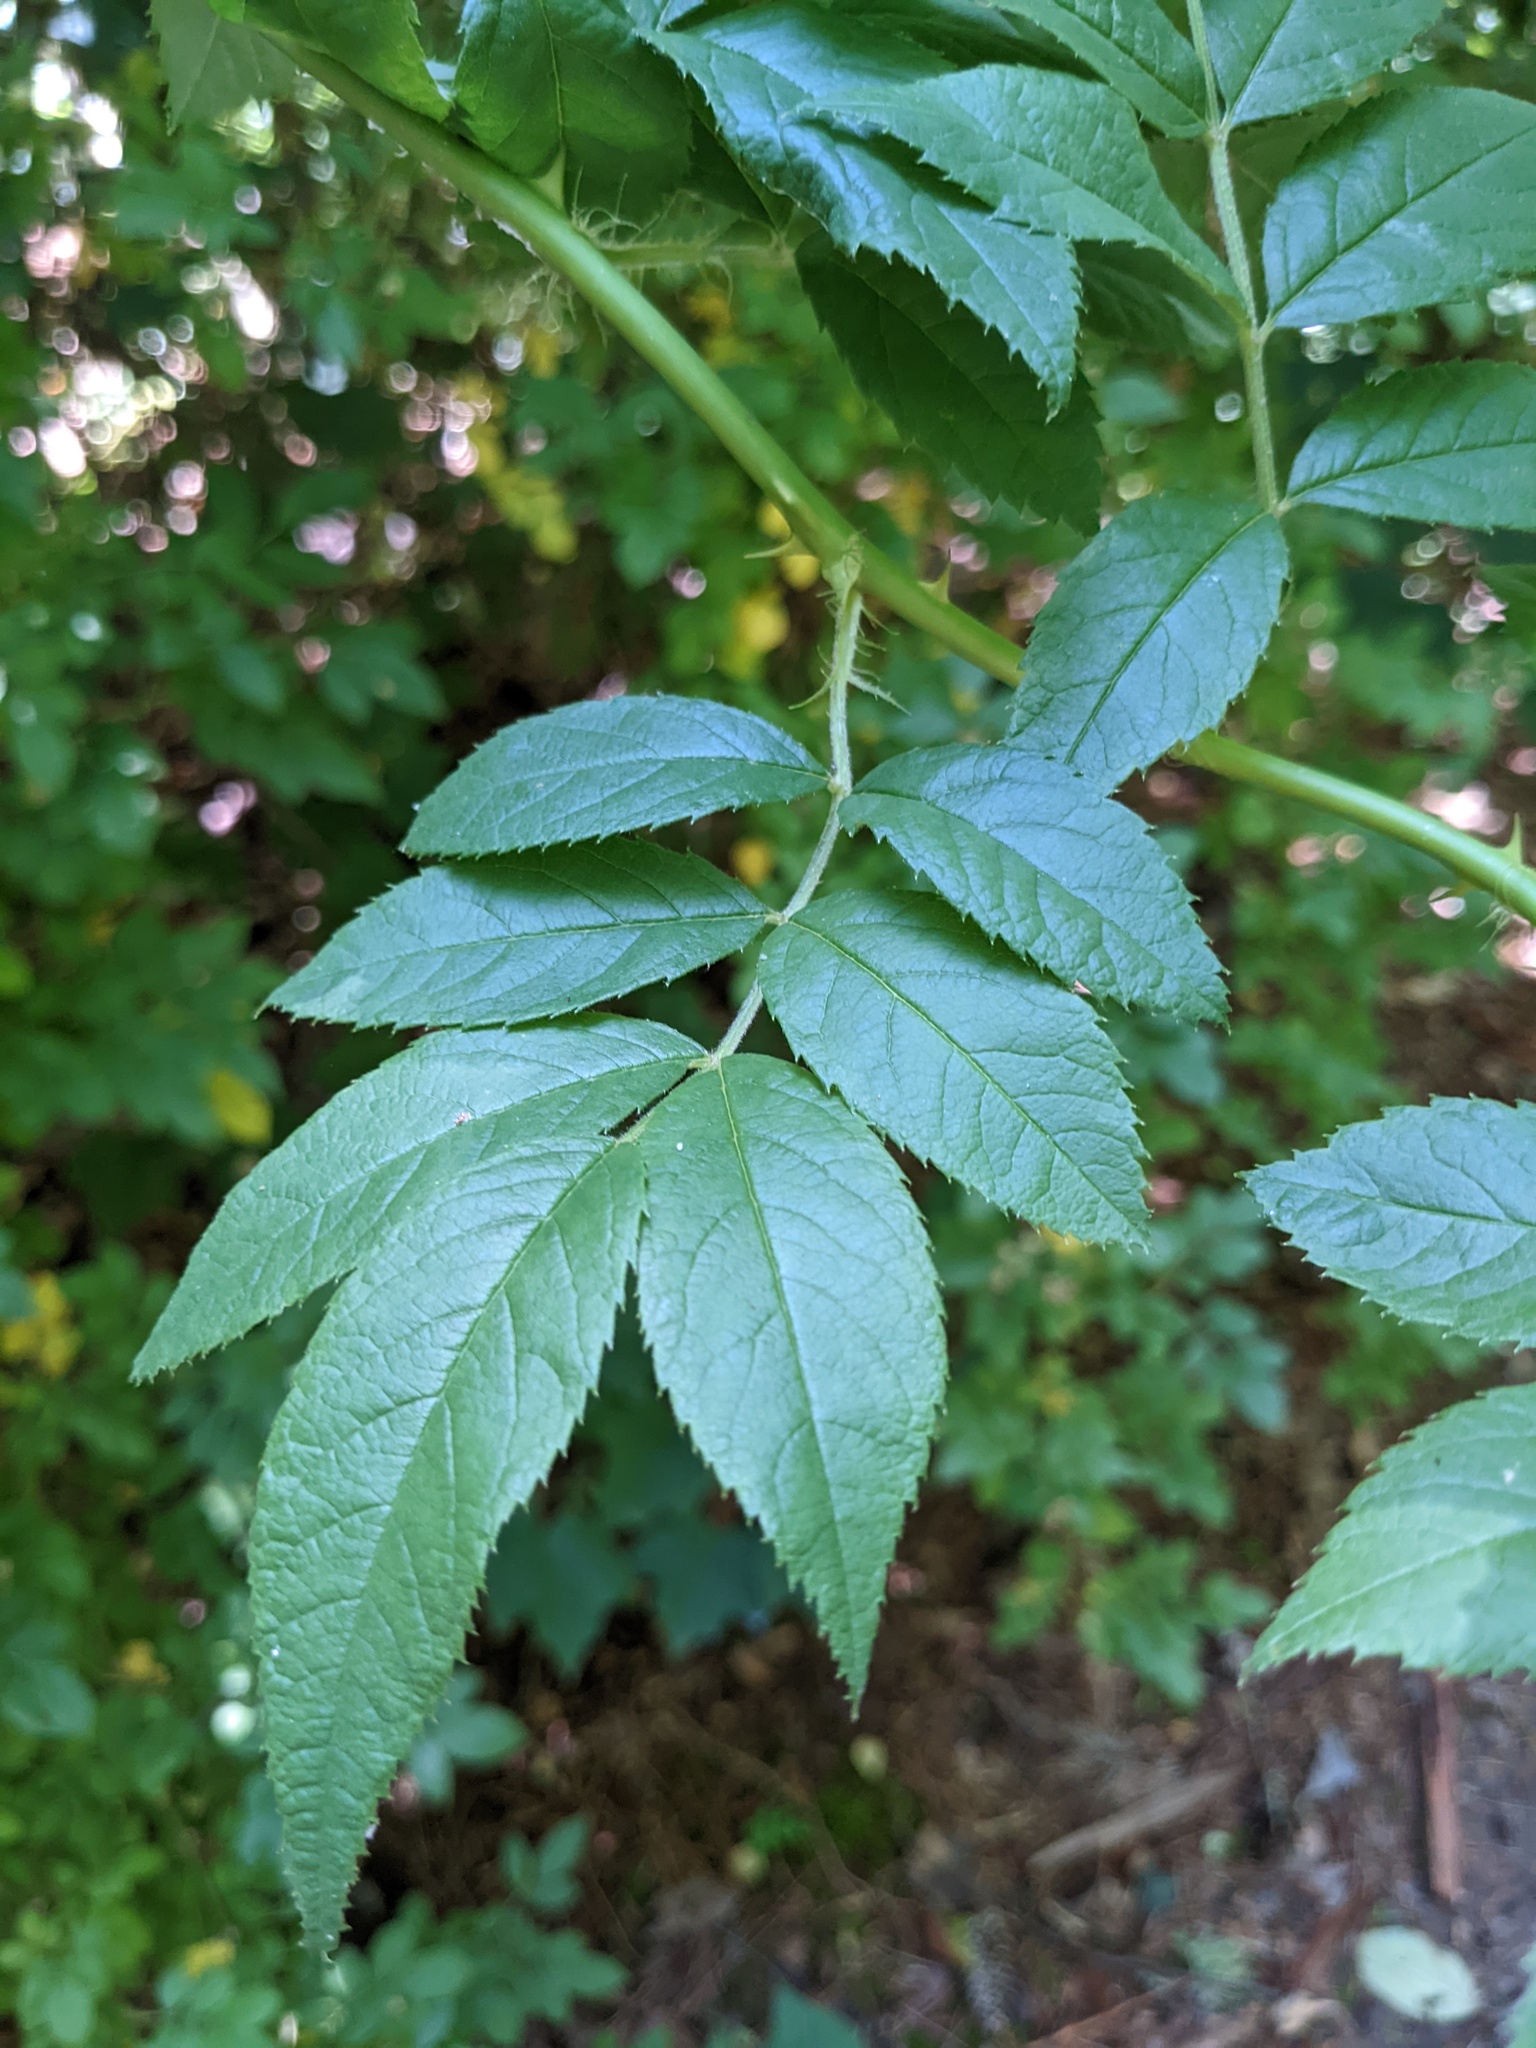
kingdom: Plantae
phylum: Tracheophyta
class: Magnoliopsida
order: Rosales
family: Rosaceae
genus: Rosa
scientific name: Rosa multiflora
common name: Multiflora rose
